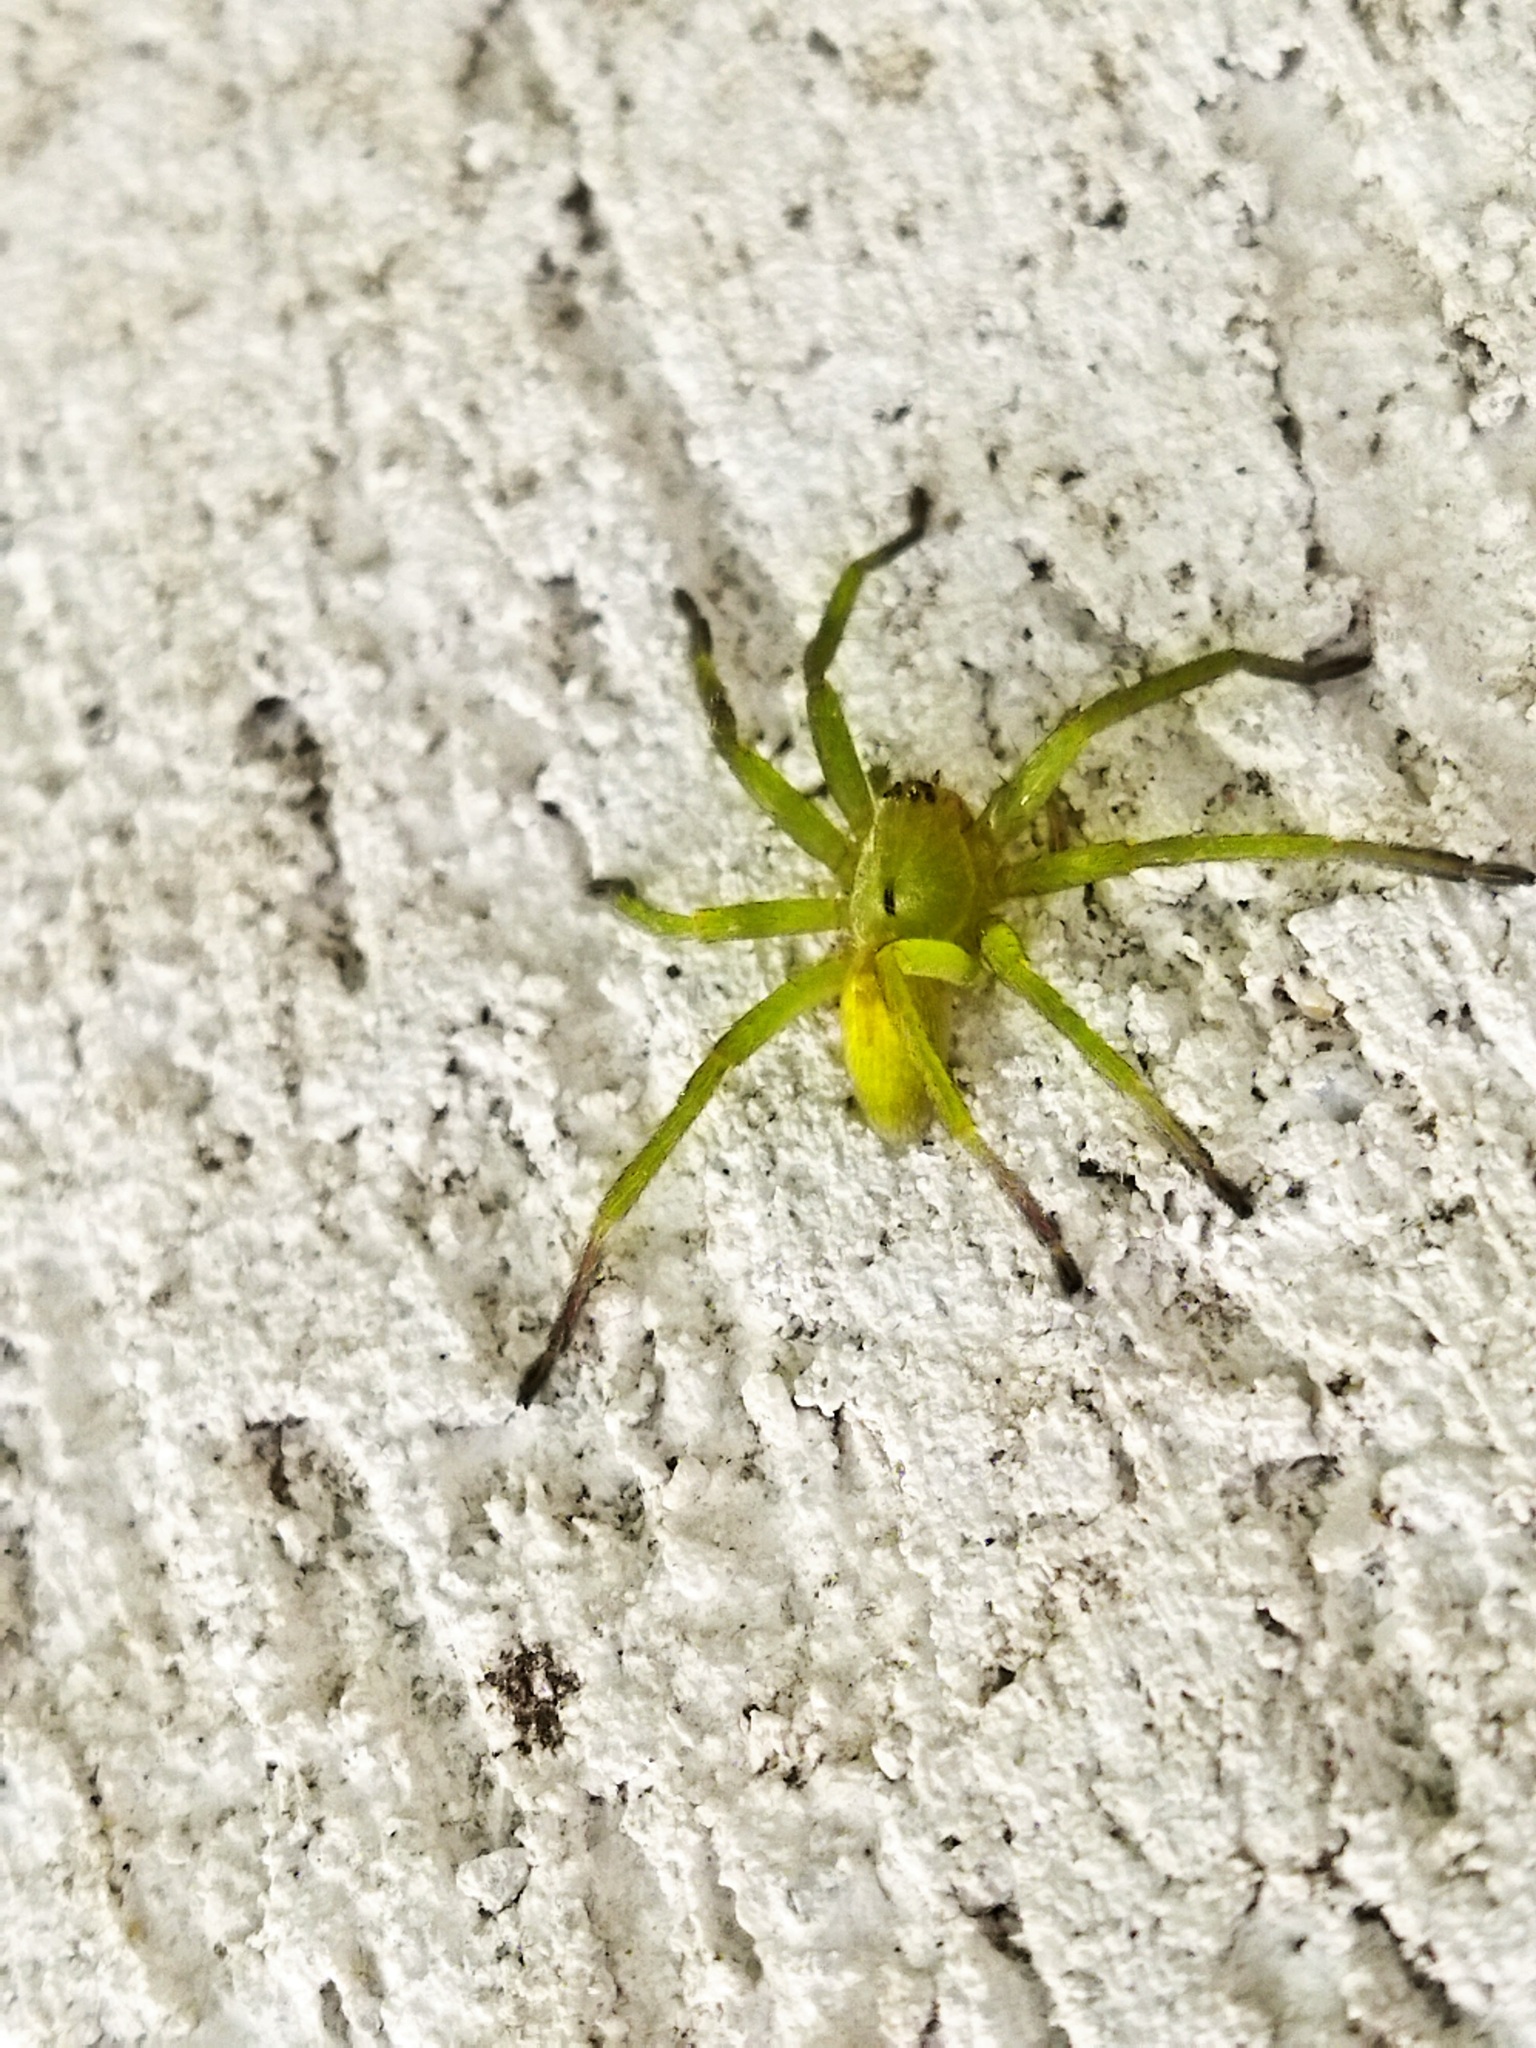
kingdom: Animalia
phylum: Arthropoda
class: Arachnida
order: Araneae
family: Sparassidae
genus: Micrommata
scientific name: Micrommata ligurina
